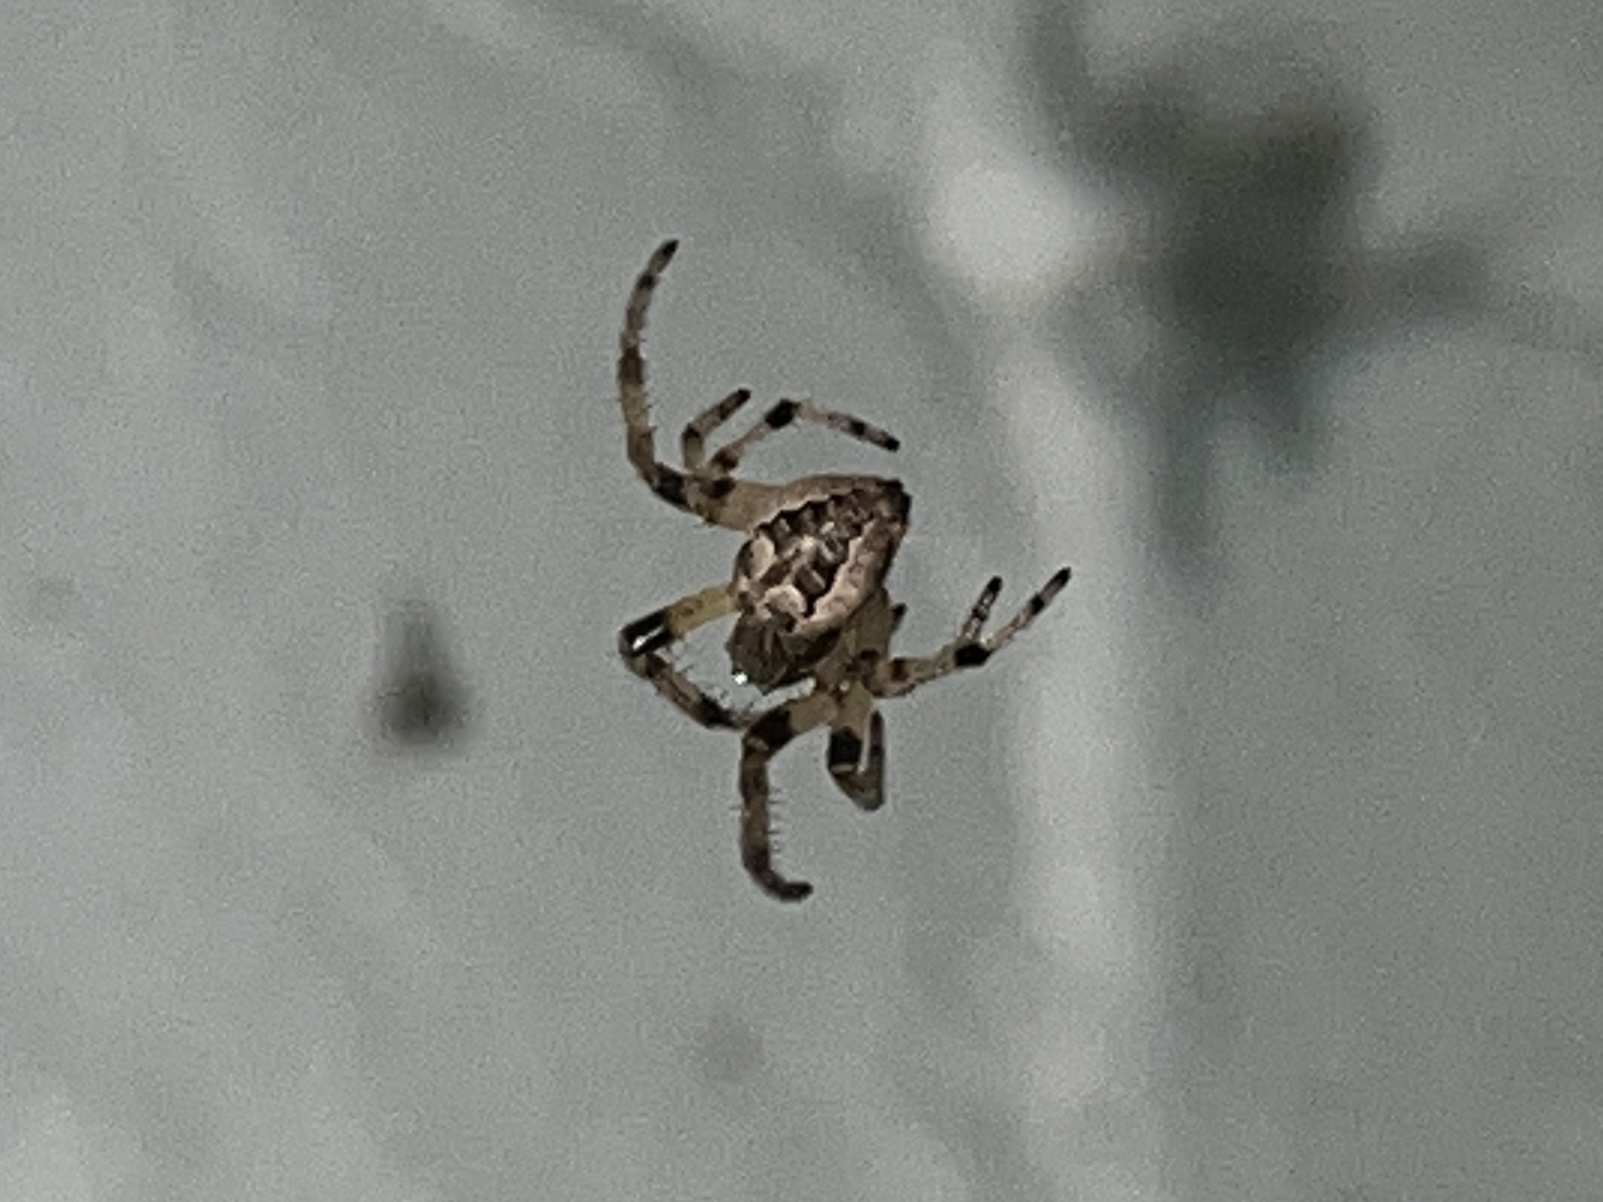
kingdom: Animalia
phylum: Arthropoda
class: Arachnida
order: Araneae
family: Araneidae
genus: Larinioides
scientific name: Larinioides cornutus
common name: Furrow orbweaver
